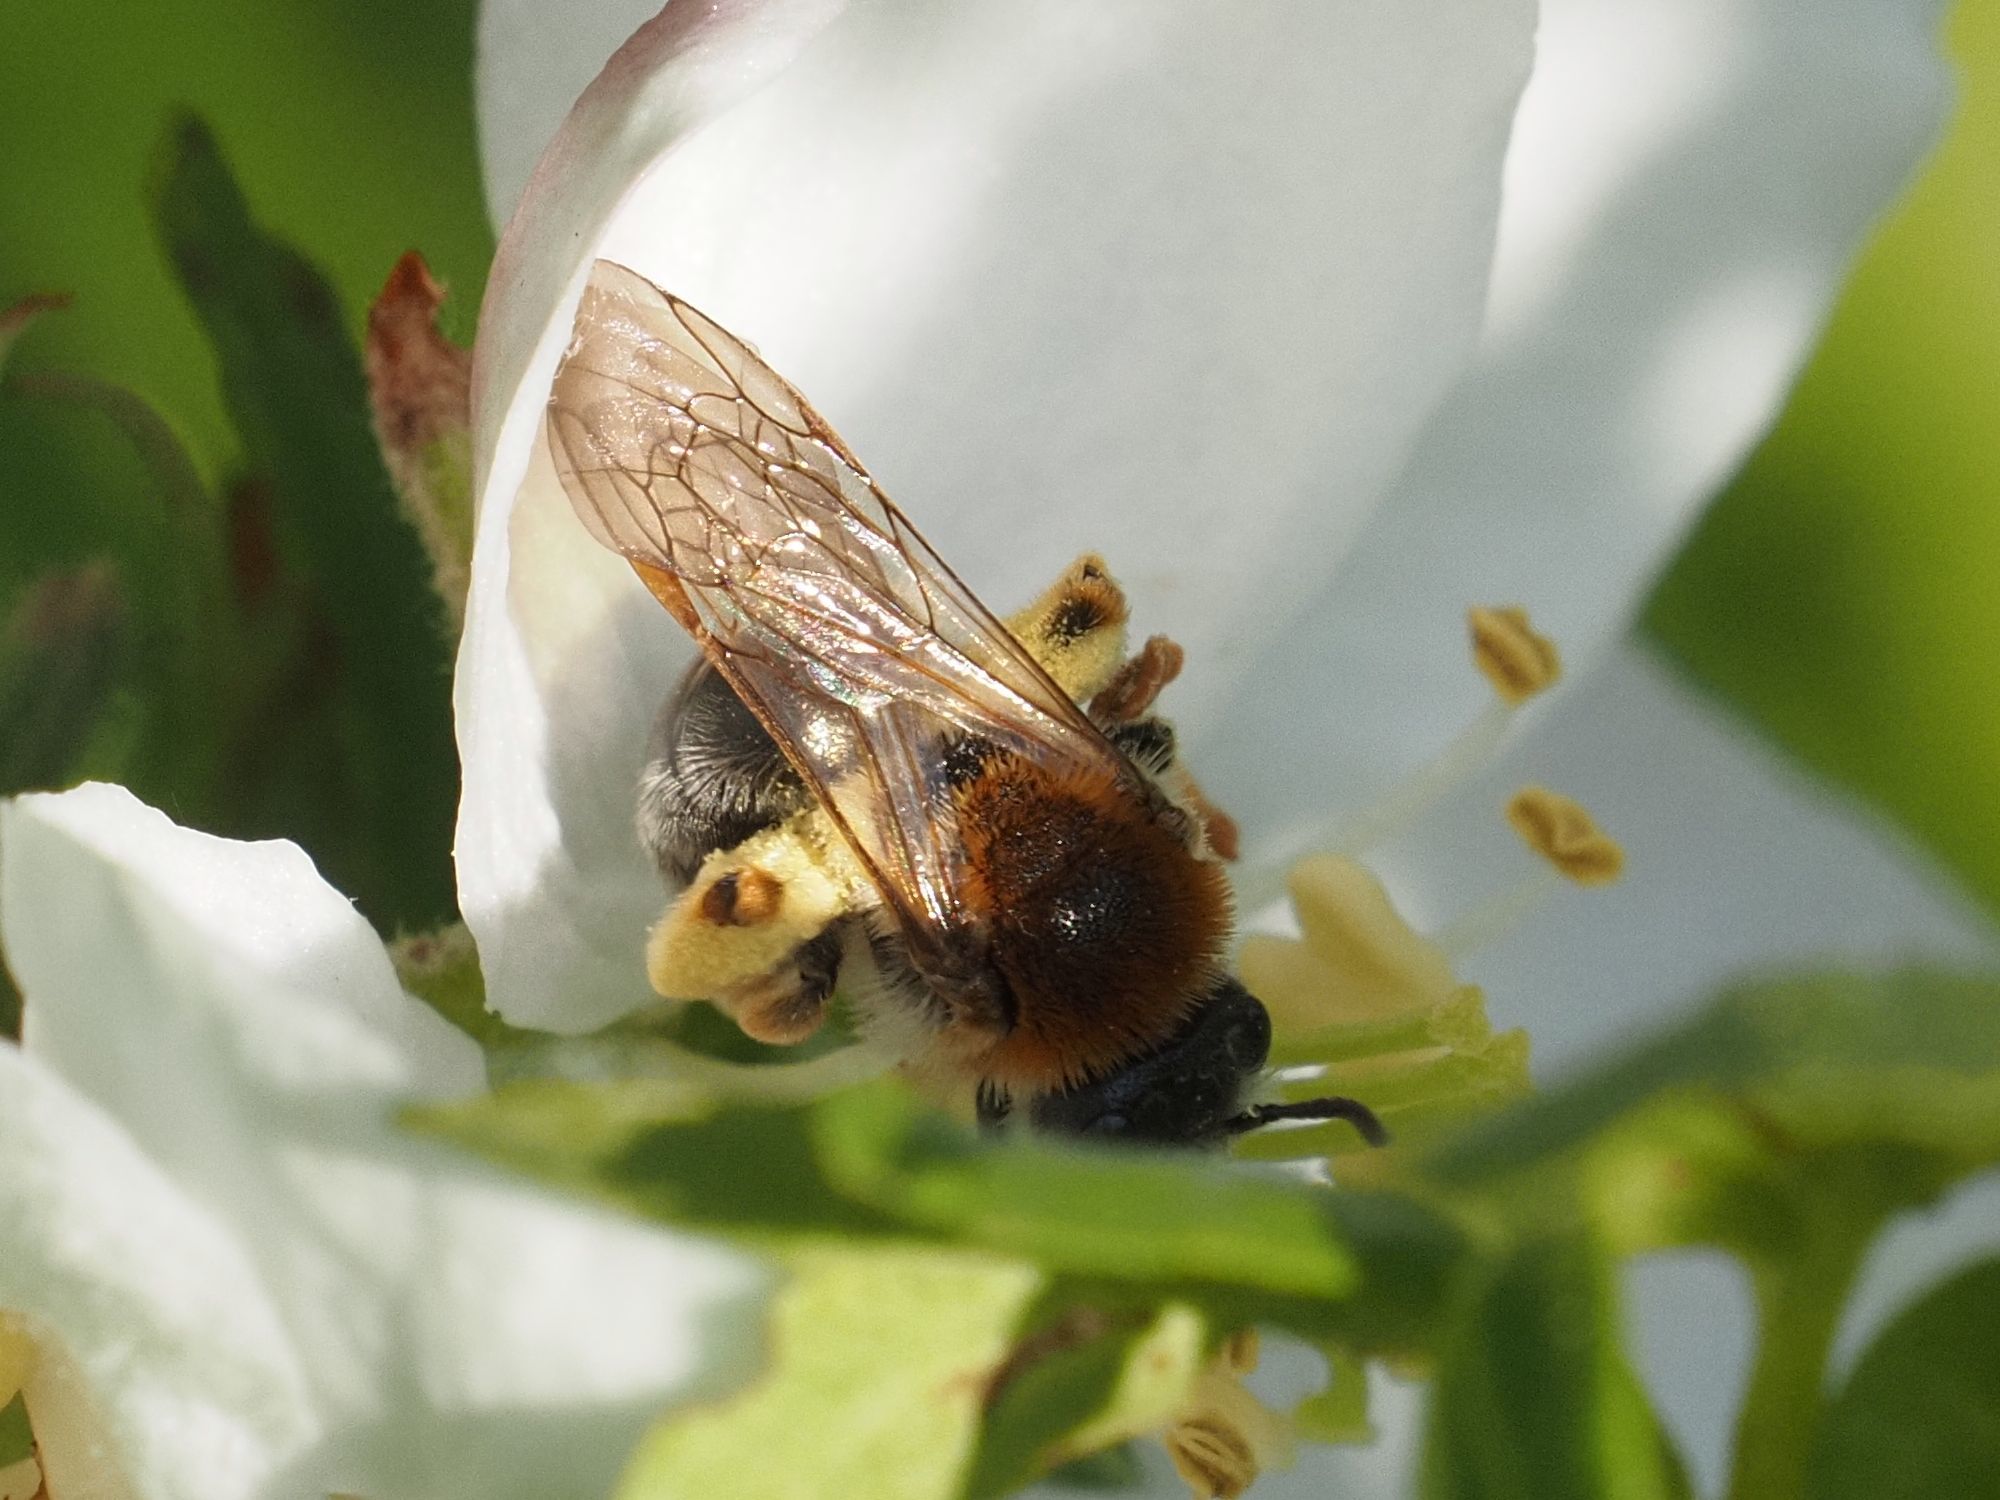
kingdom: Animalia
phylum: Arthropoda
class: Insecta
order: Hymenoptera
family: Andrenidae
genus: Andrena
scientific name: Andrena haemorrhoa
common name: Early mining bee
